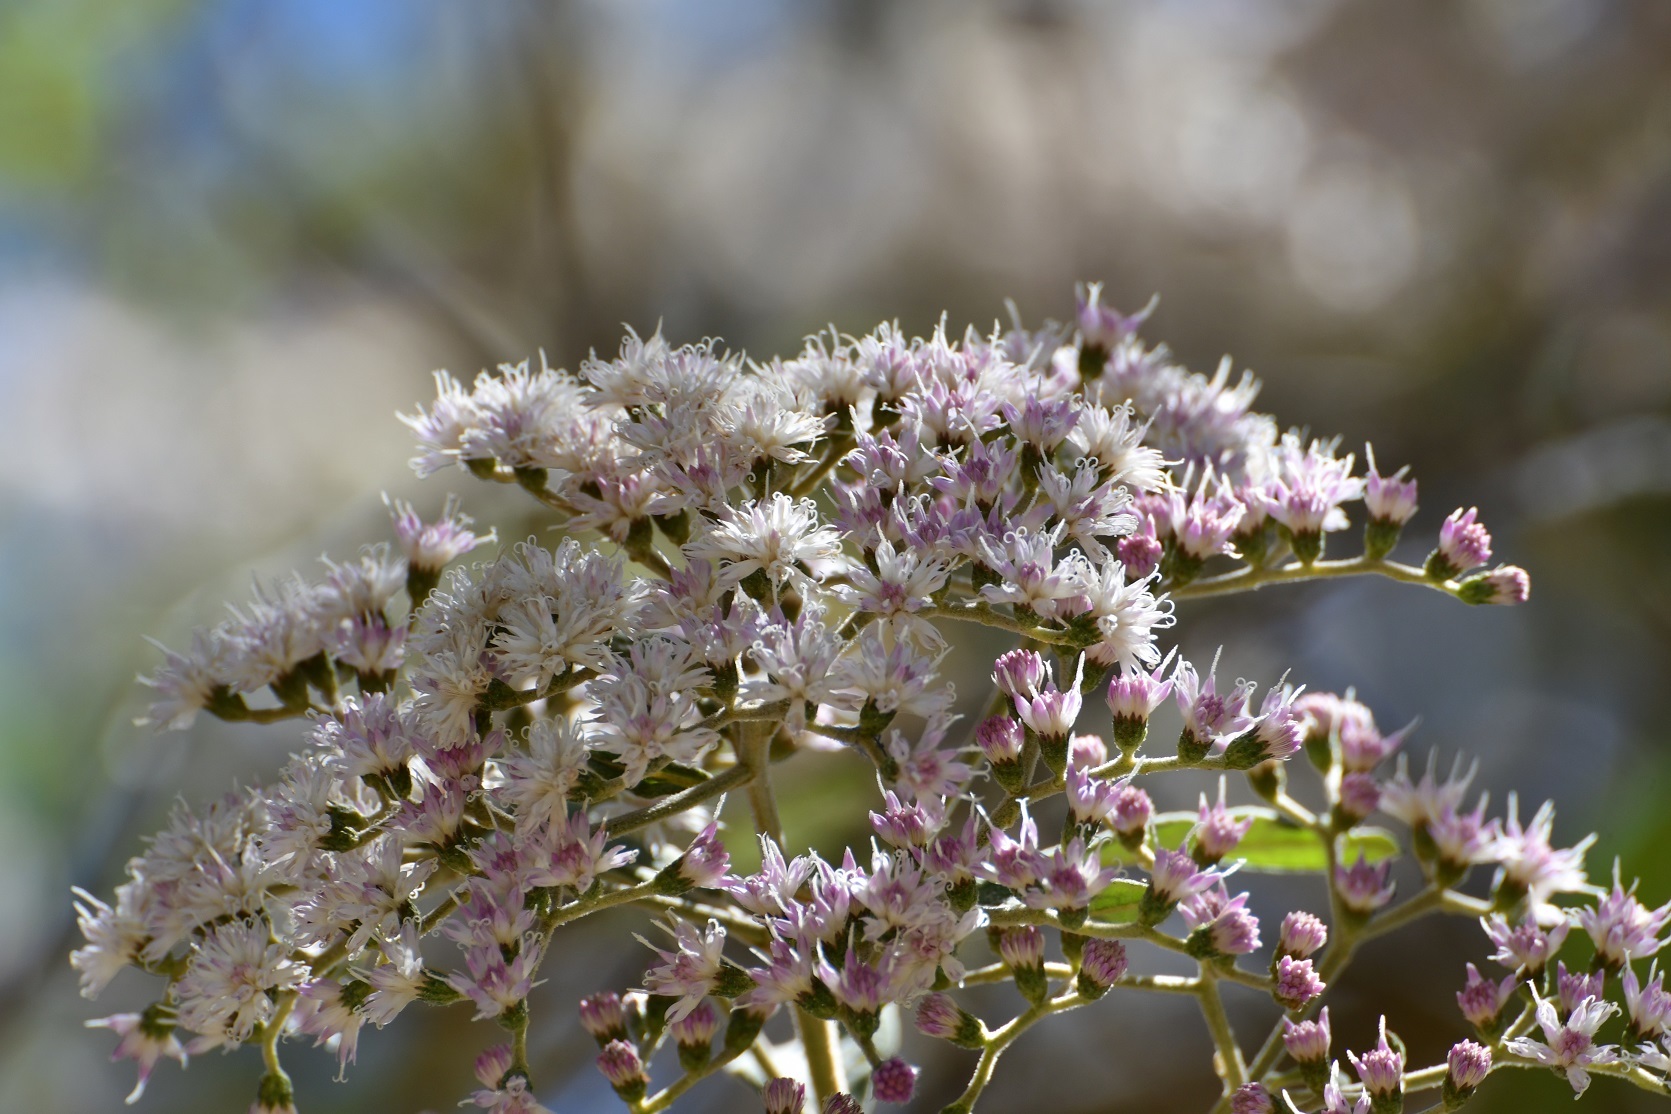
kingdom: Plantae
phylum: Tracheophyta
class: Magnoliopsida
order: Asterales
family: Asteraceae
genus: Vernonanthura
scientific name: Vernonanthura patens
